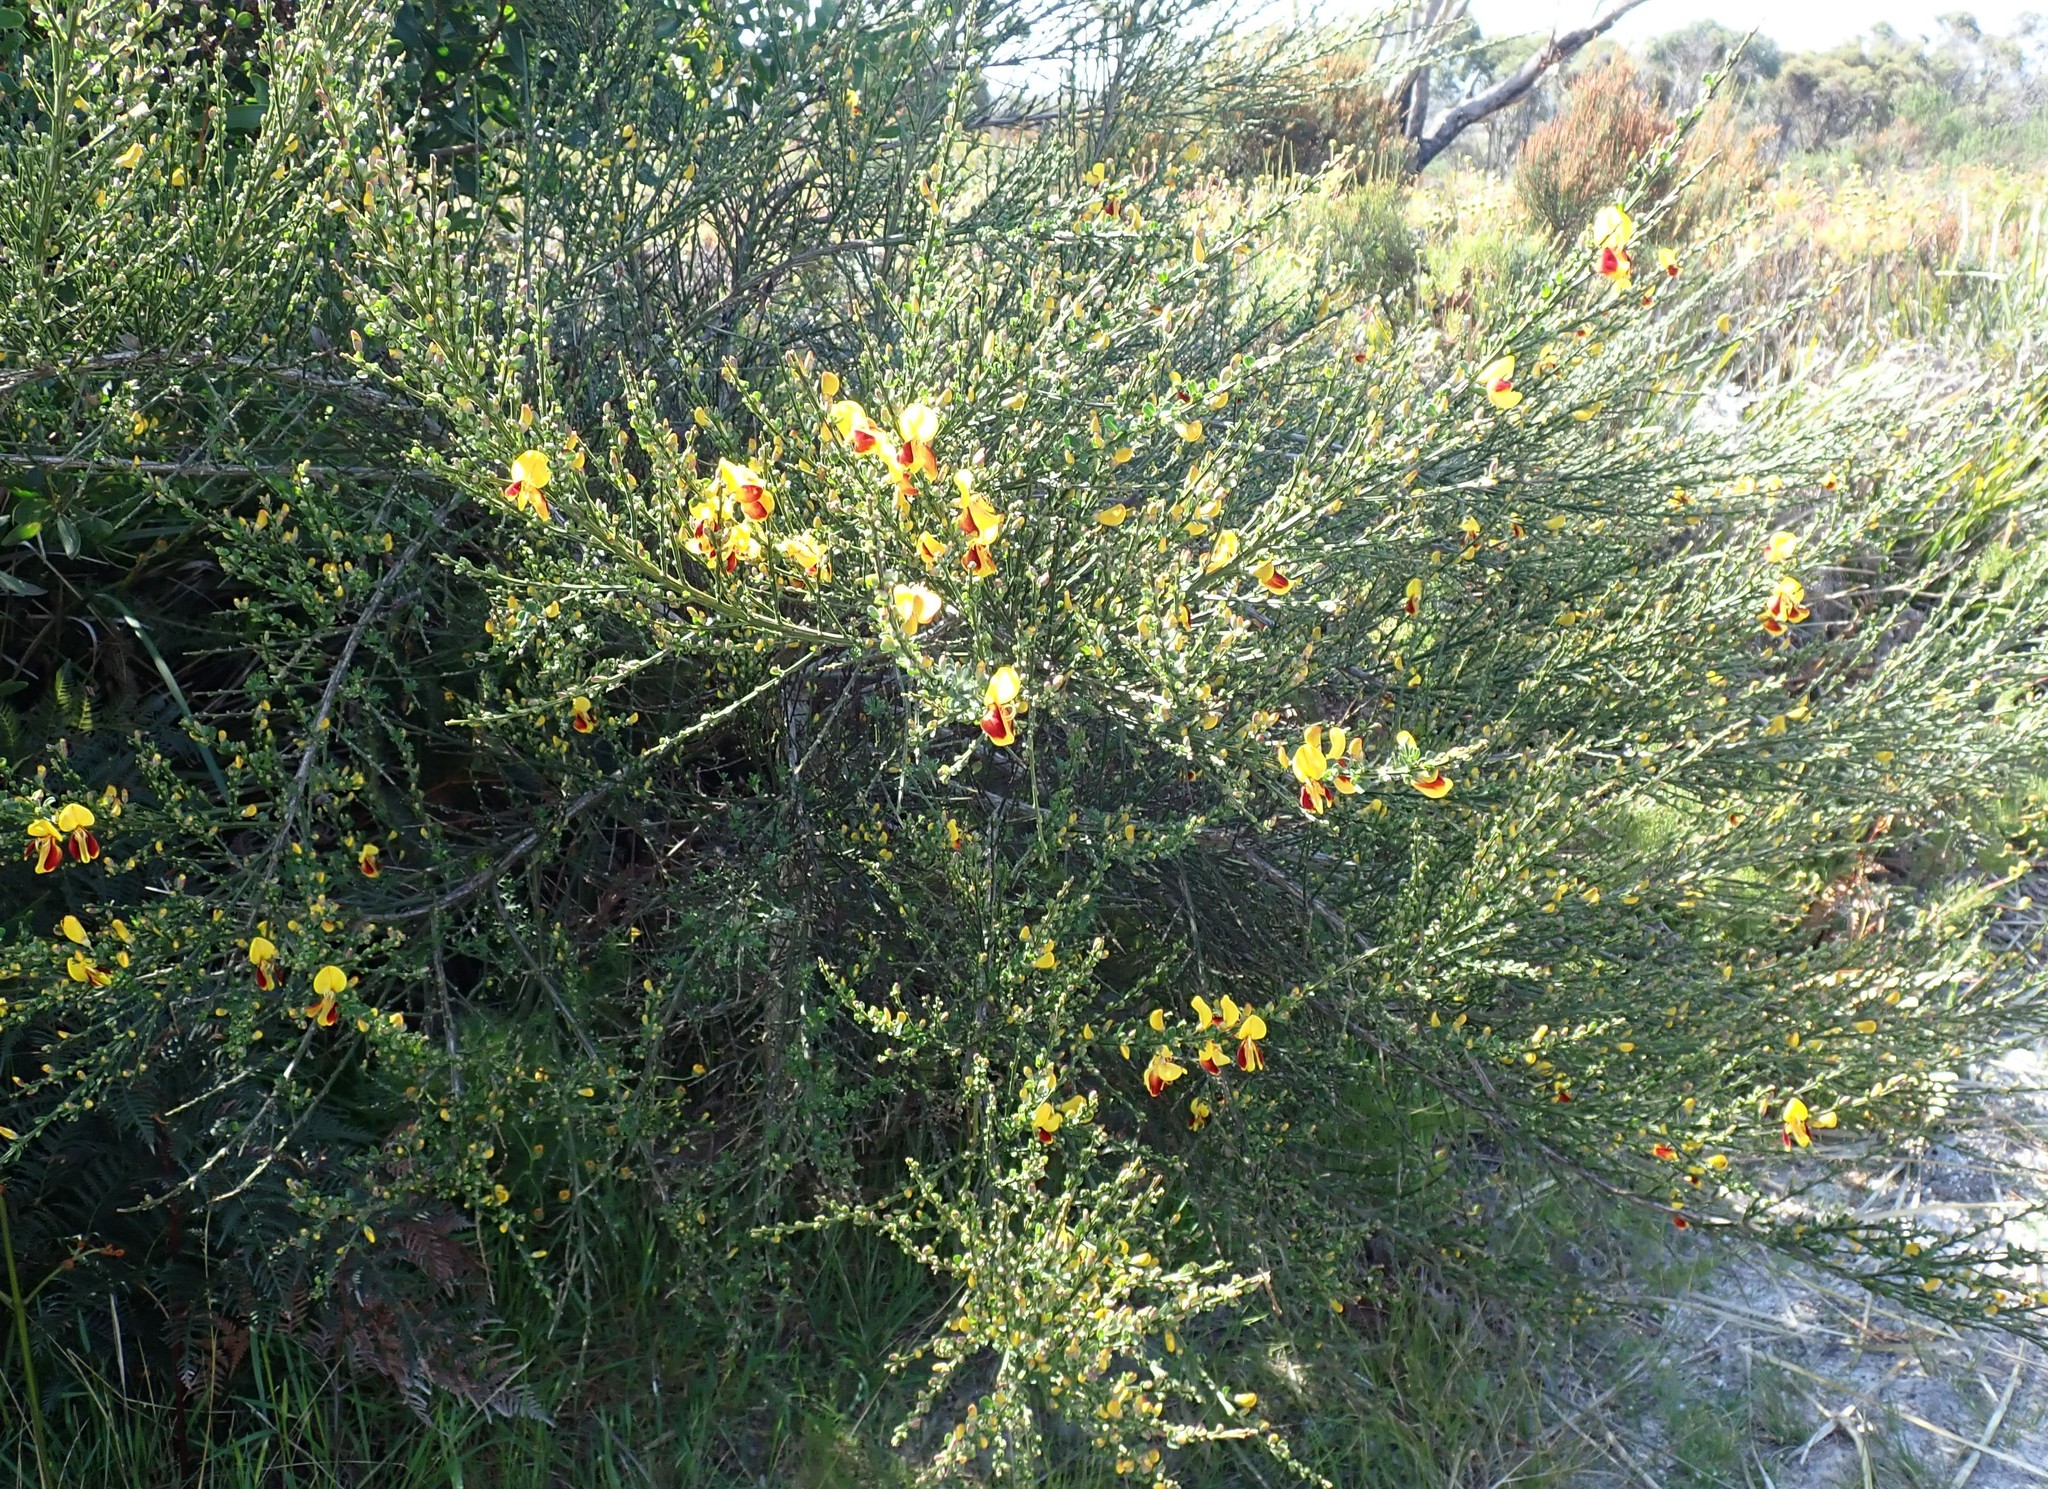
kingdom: Plantae
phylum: Tracheophyta
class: Magnoliopsida
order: Fabales
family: Fabaceae
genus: Cytisus
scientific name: Cytisus scoparius
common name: Scotch broom
